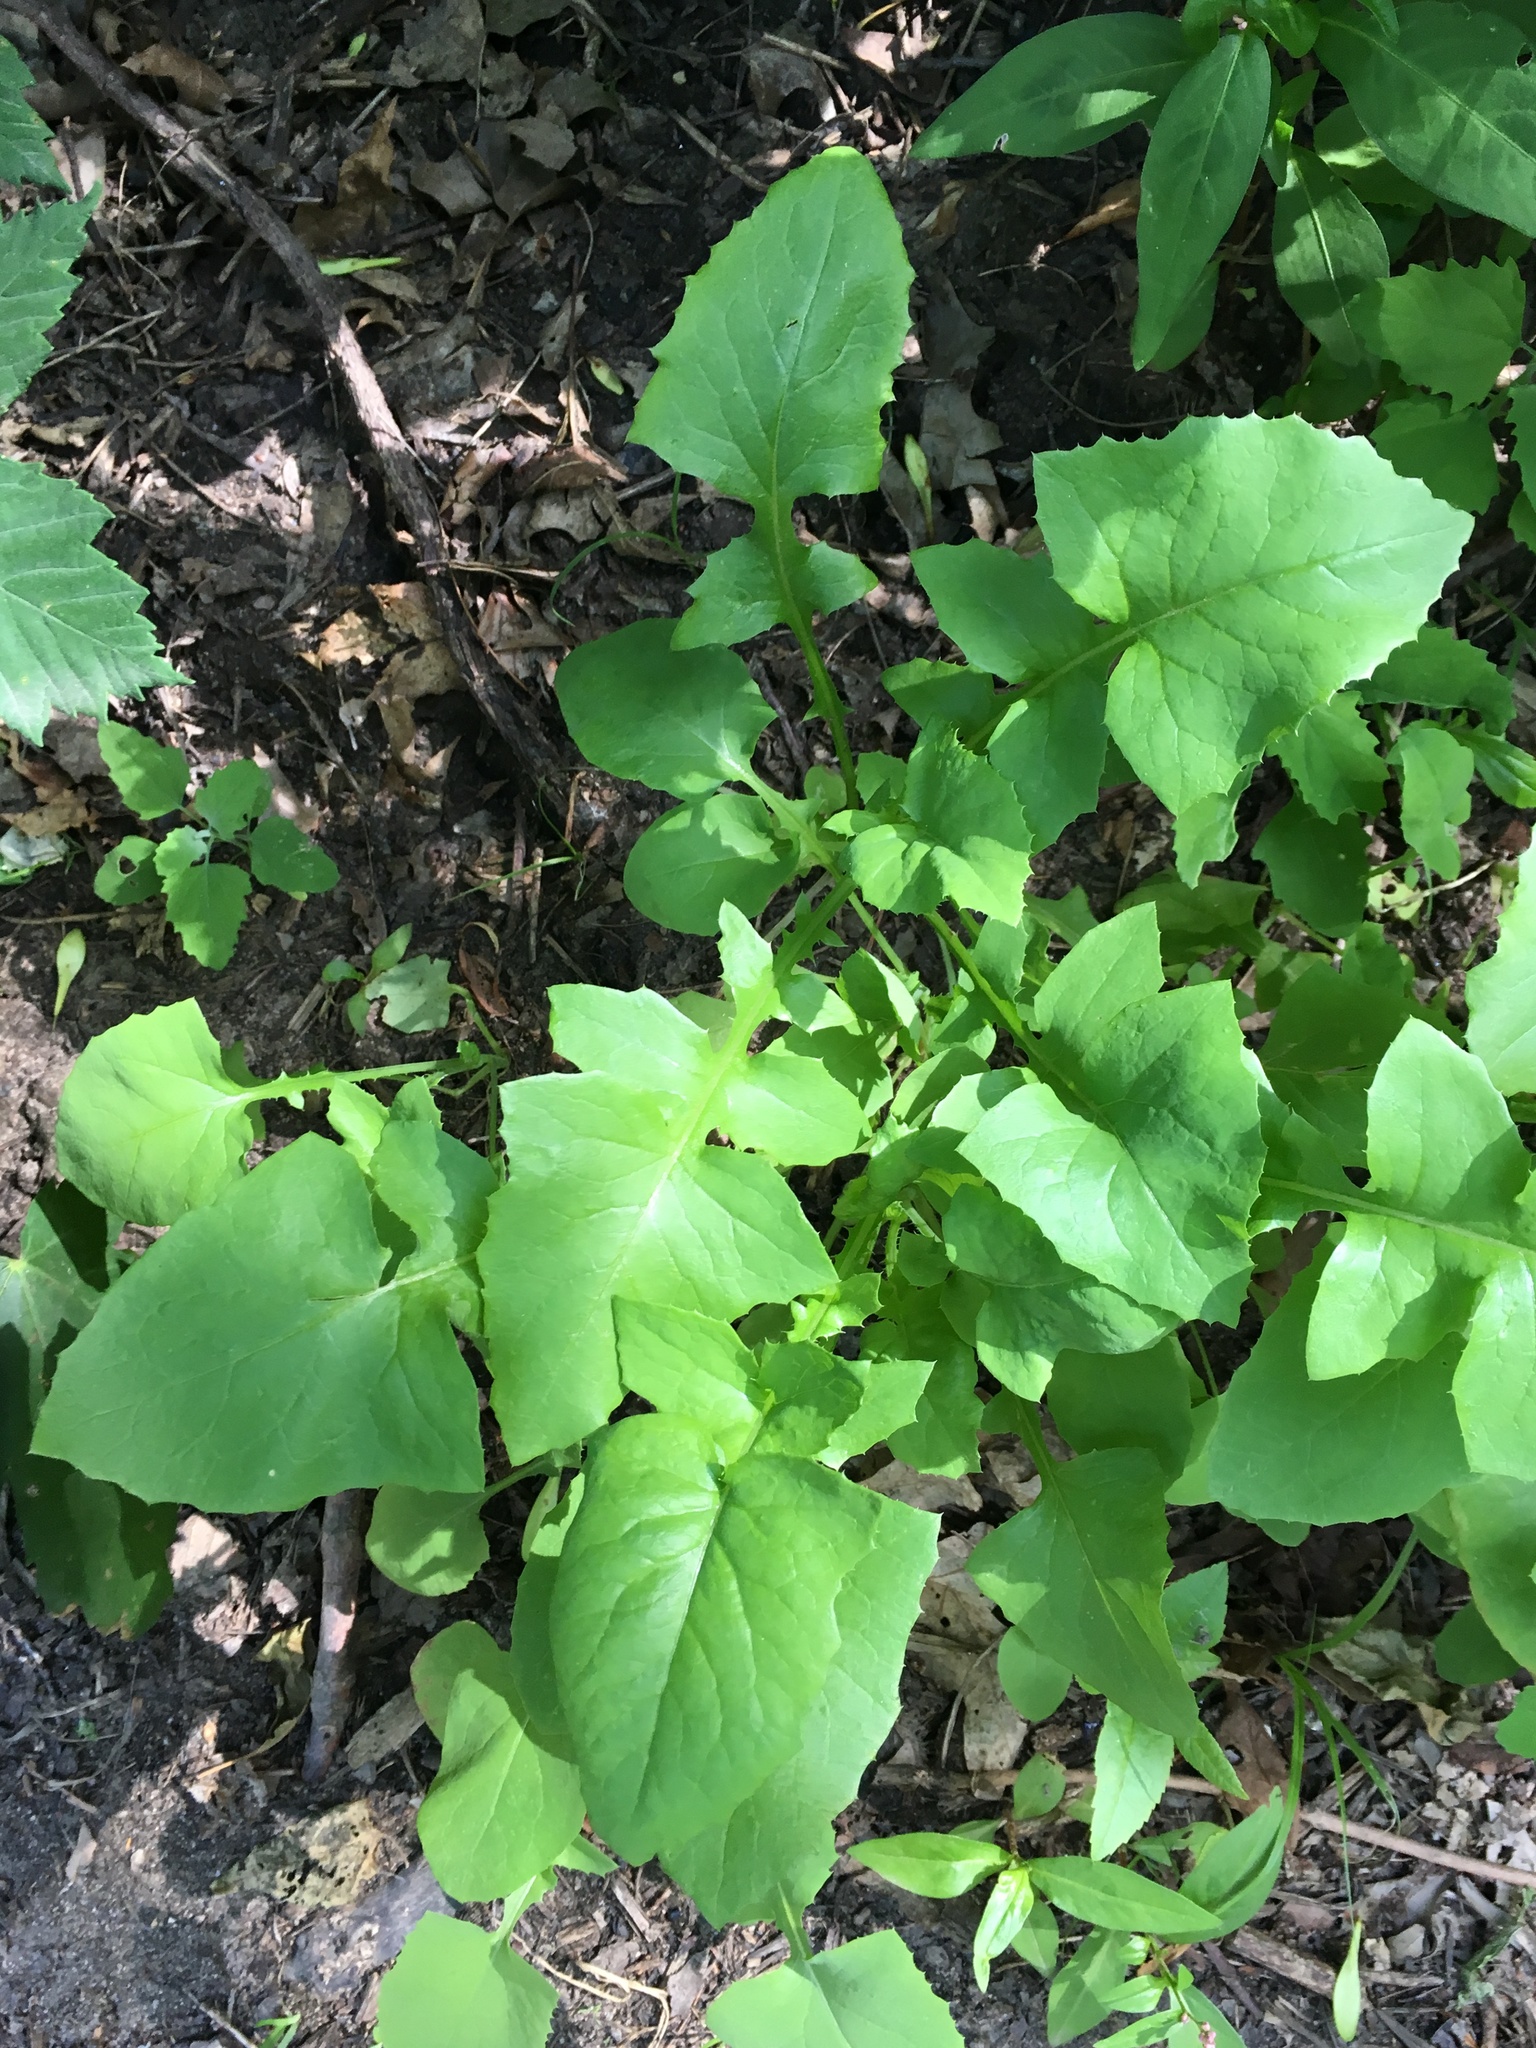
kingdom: Plantae
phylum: Tracheophyta
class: Magnoliopsida
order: Asterales
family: Asteraceae
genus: Sonchus
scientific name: Sonchus oleraceus
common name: Common sowthistle
